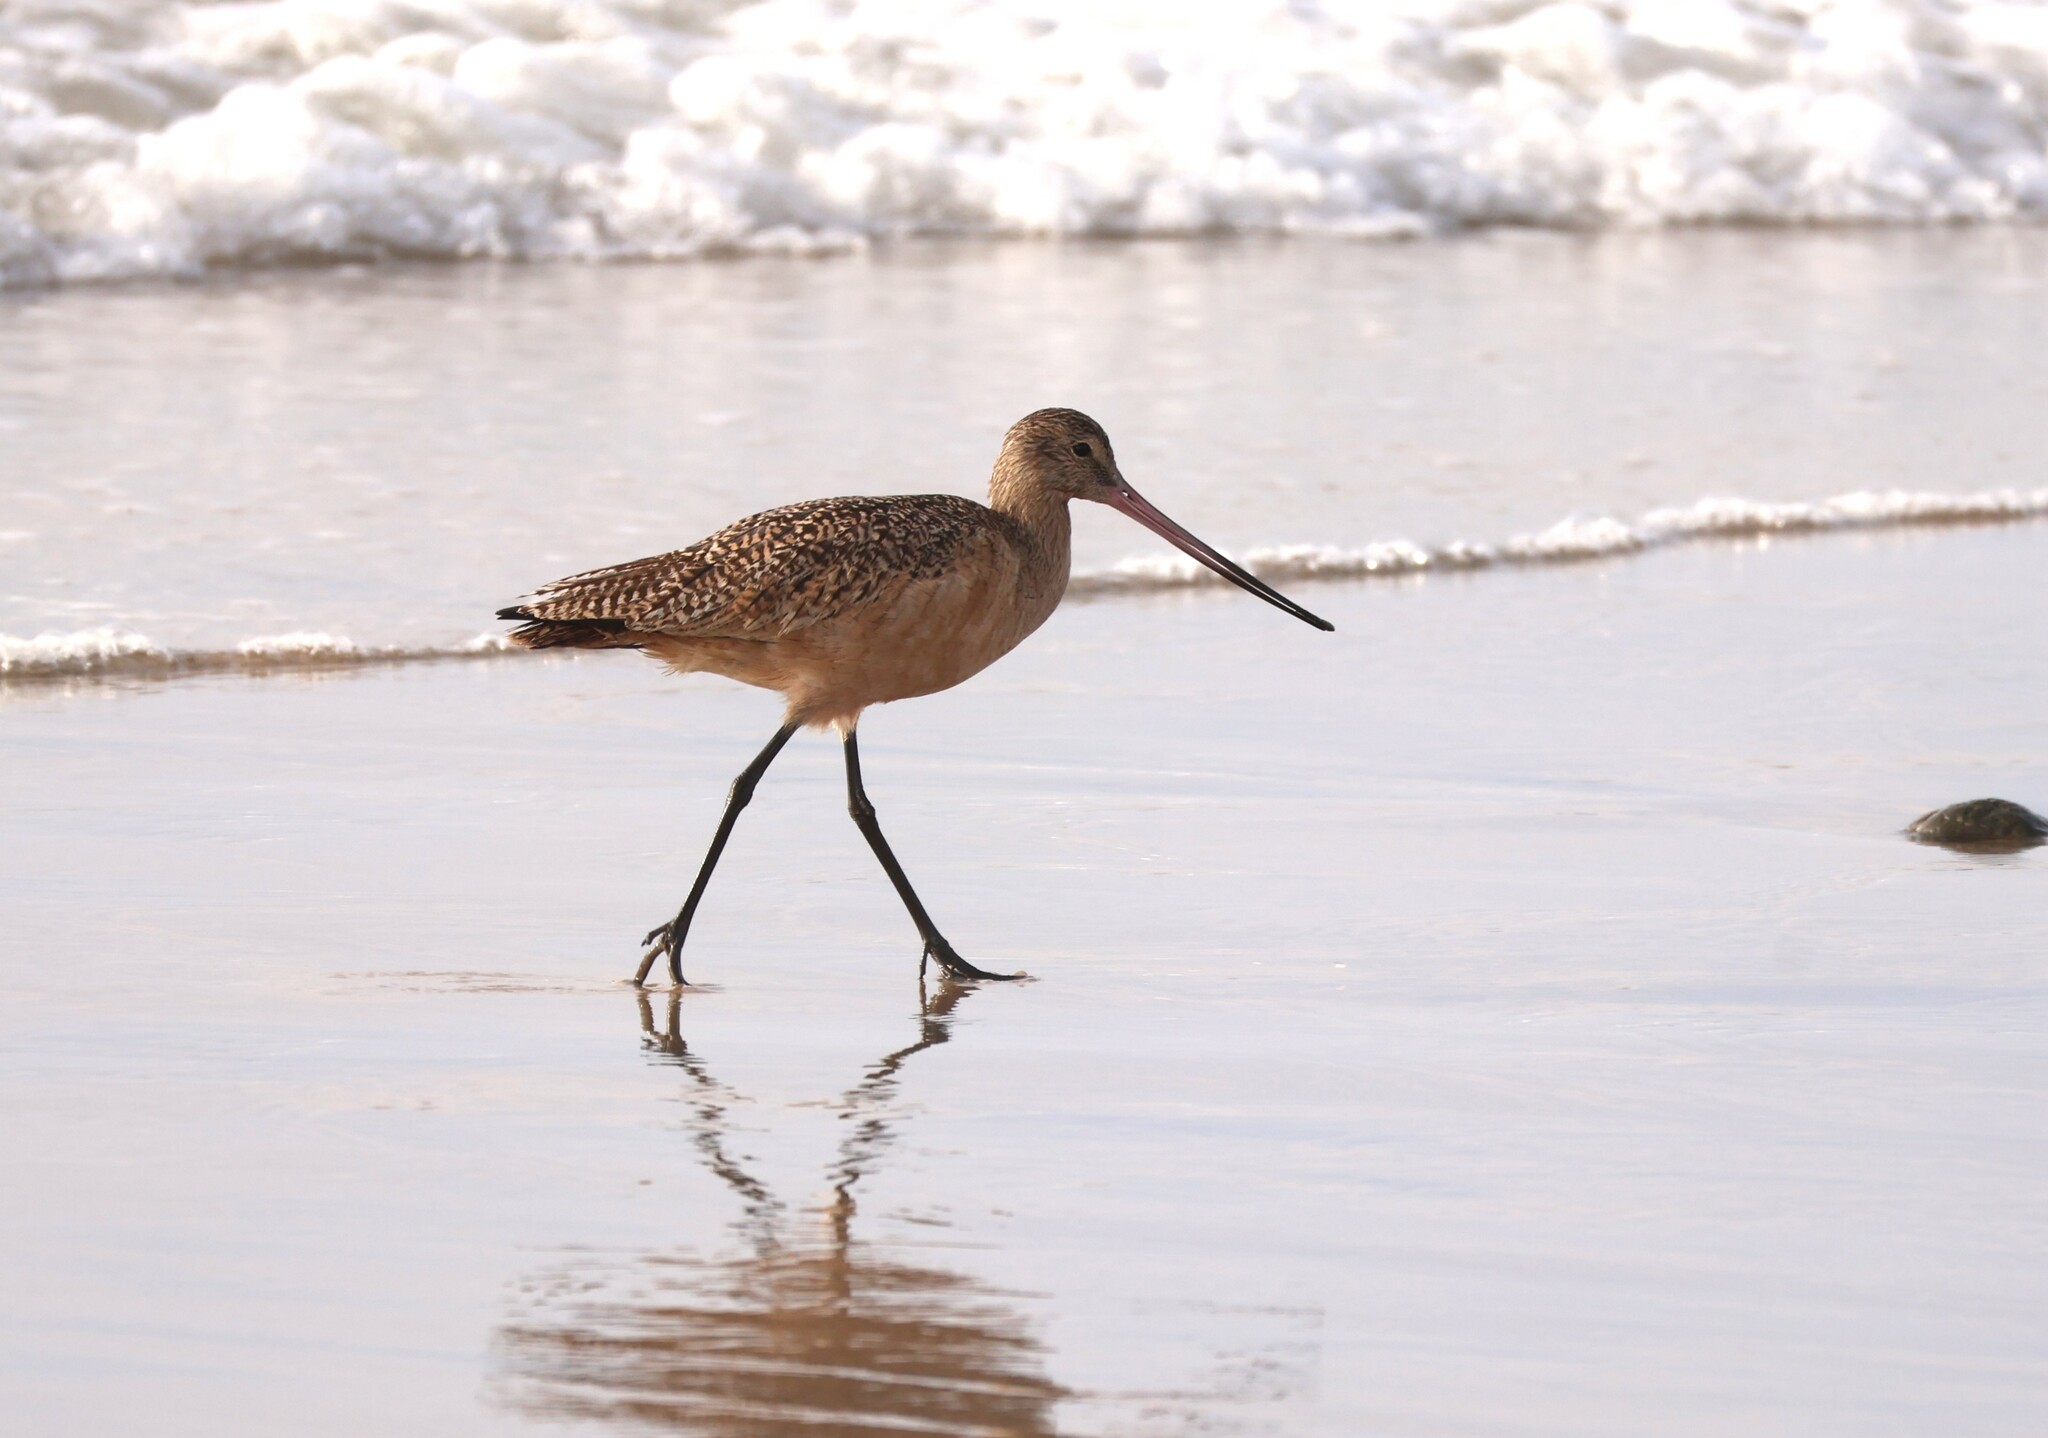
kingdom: Animalia
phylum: Chordata
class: Aves
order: Charadriiformes
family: Scolopacidae
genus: Limosa
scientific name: Limosa fedoa
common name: Marbled godwit
